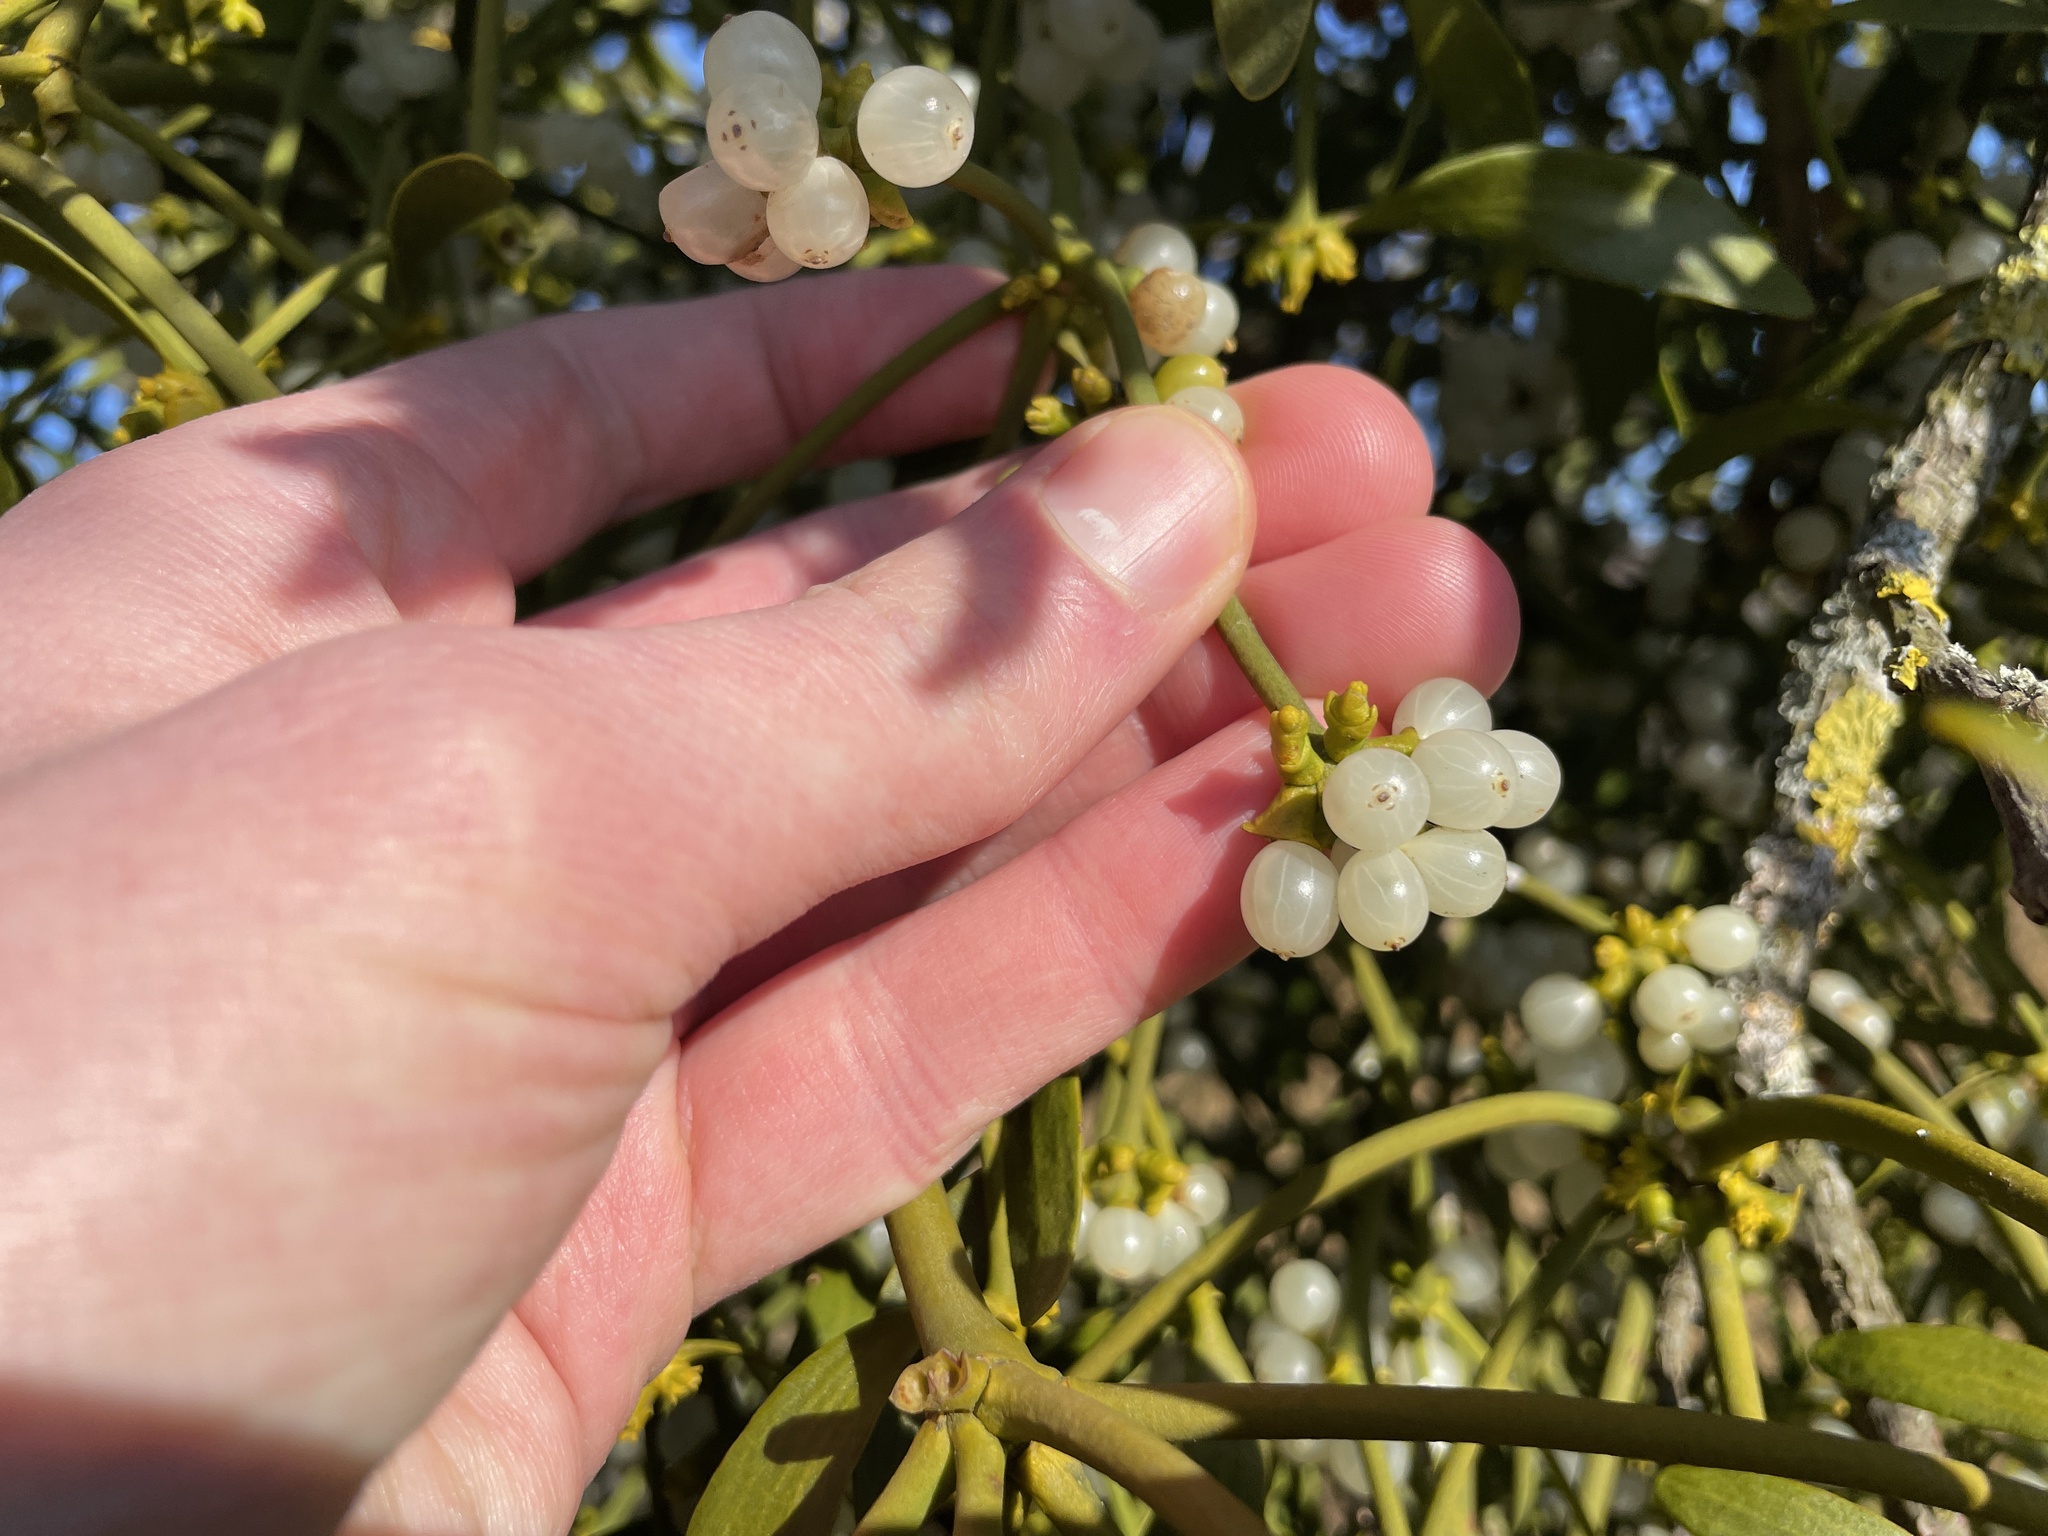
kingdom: Plantae
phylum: Tracheophyta
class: Magnoliopsida
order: Santalales
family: Viscaceae
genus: Viscum
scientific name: Viscum album
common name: Mistletoe
